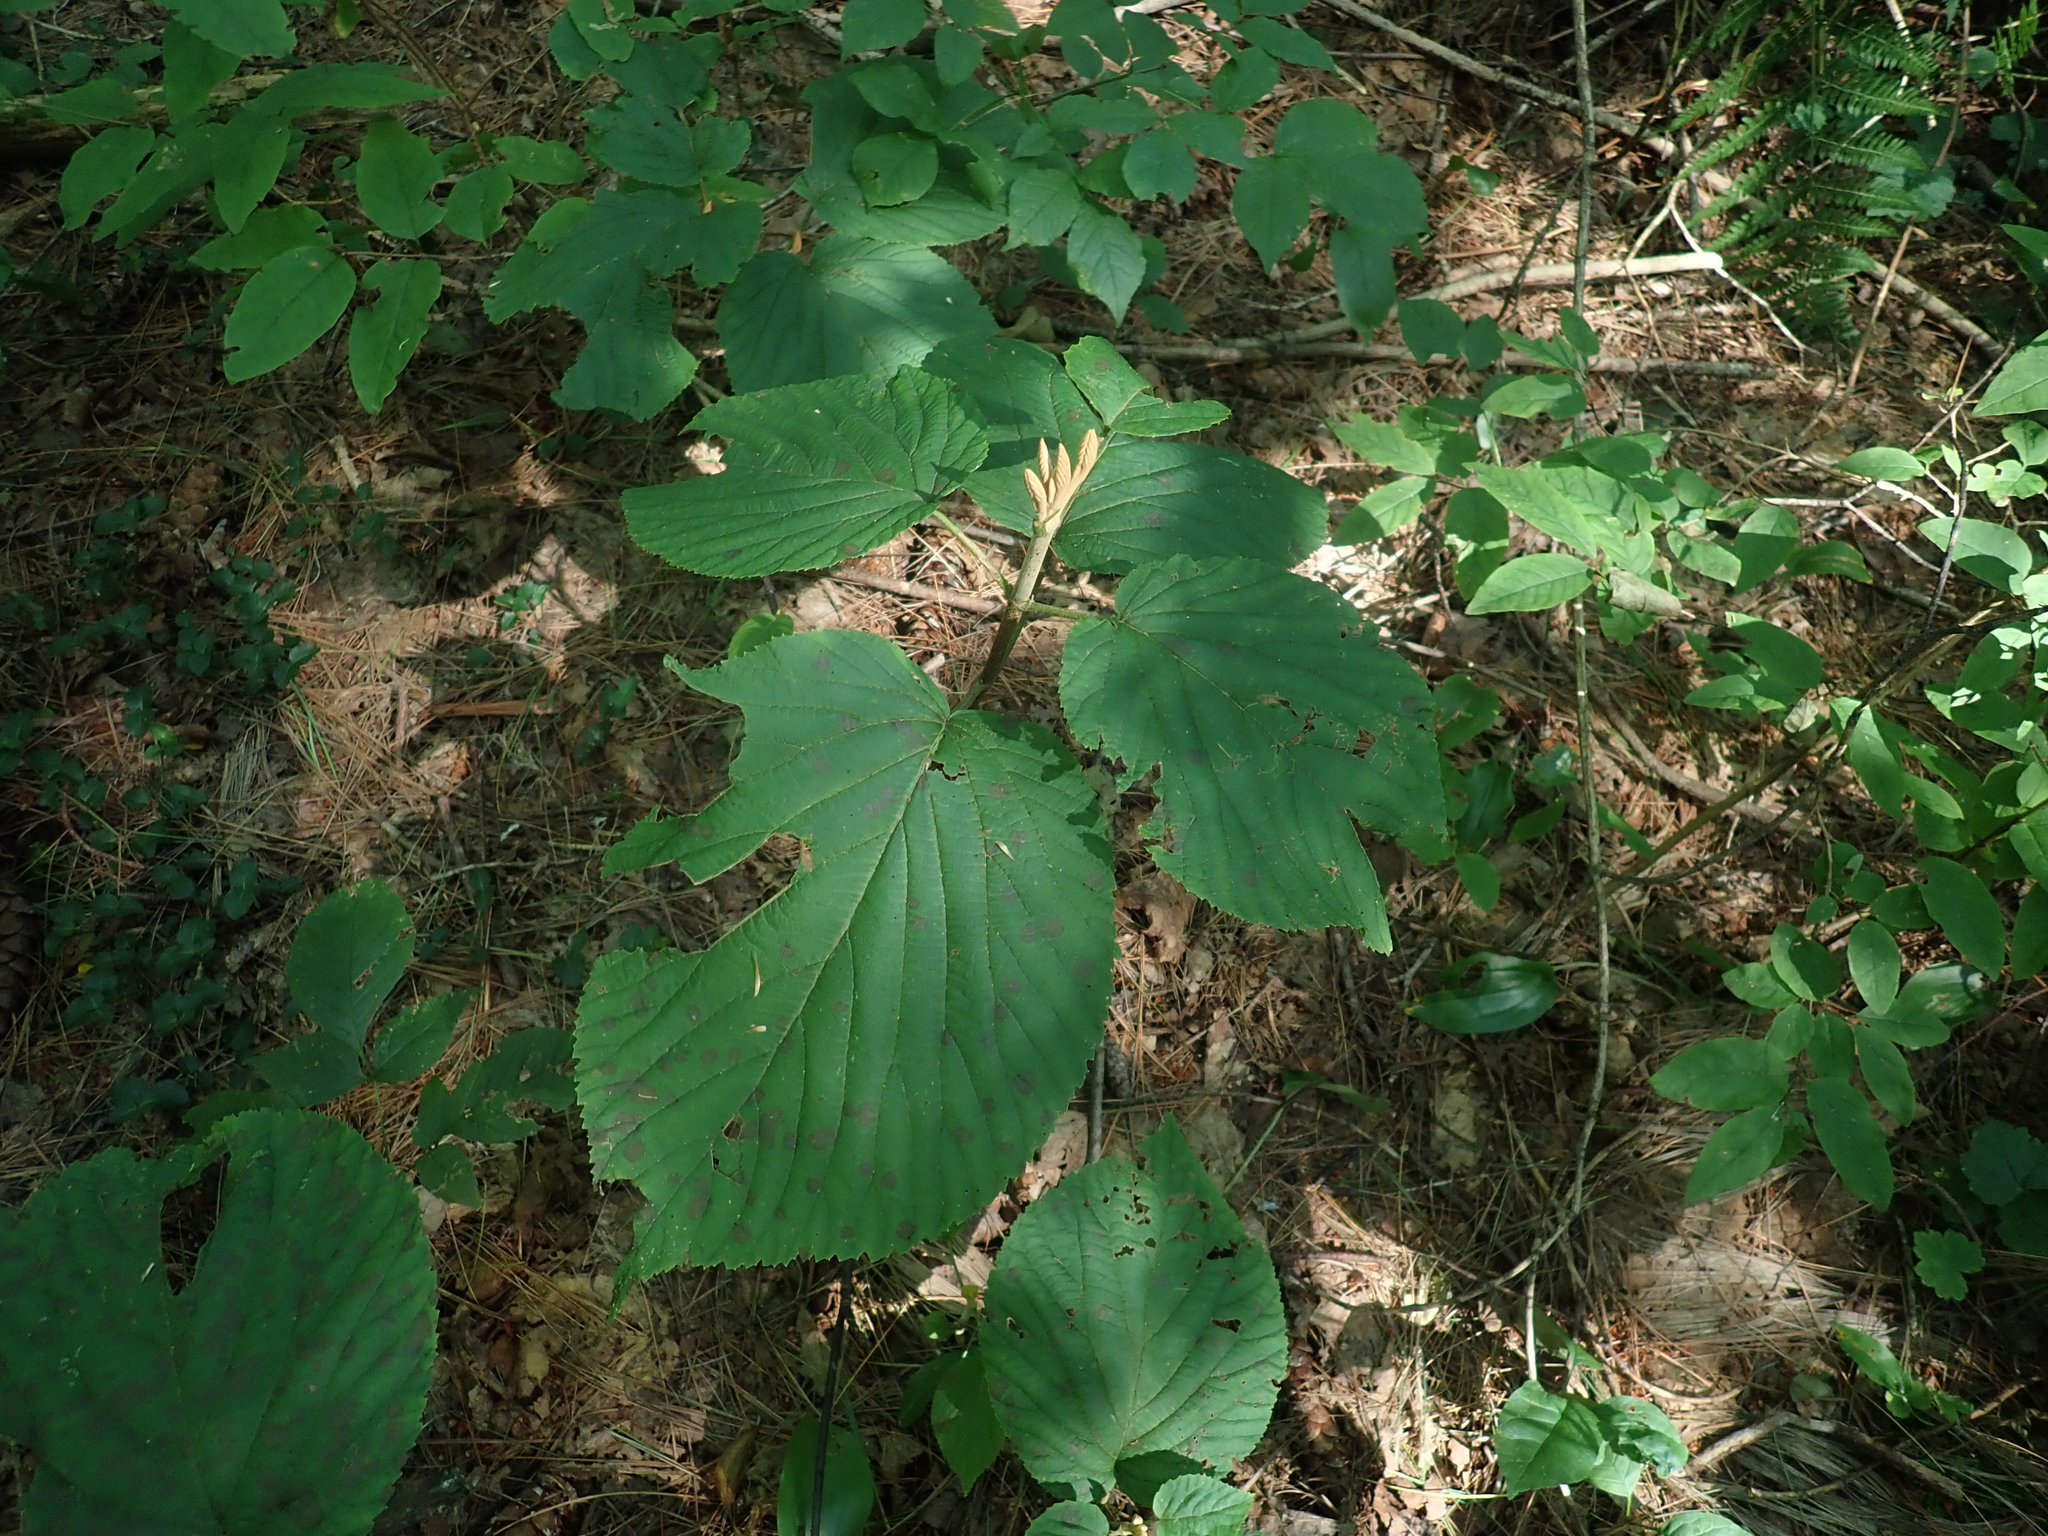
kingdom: Plantae
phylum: Tracheophyta
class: Magnoliopsida
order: Dipsacales
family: Viburnaceae
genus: Viburnum
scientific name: Viburnum lantanoides
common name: Hobblebush
